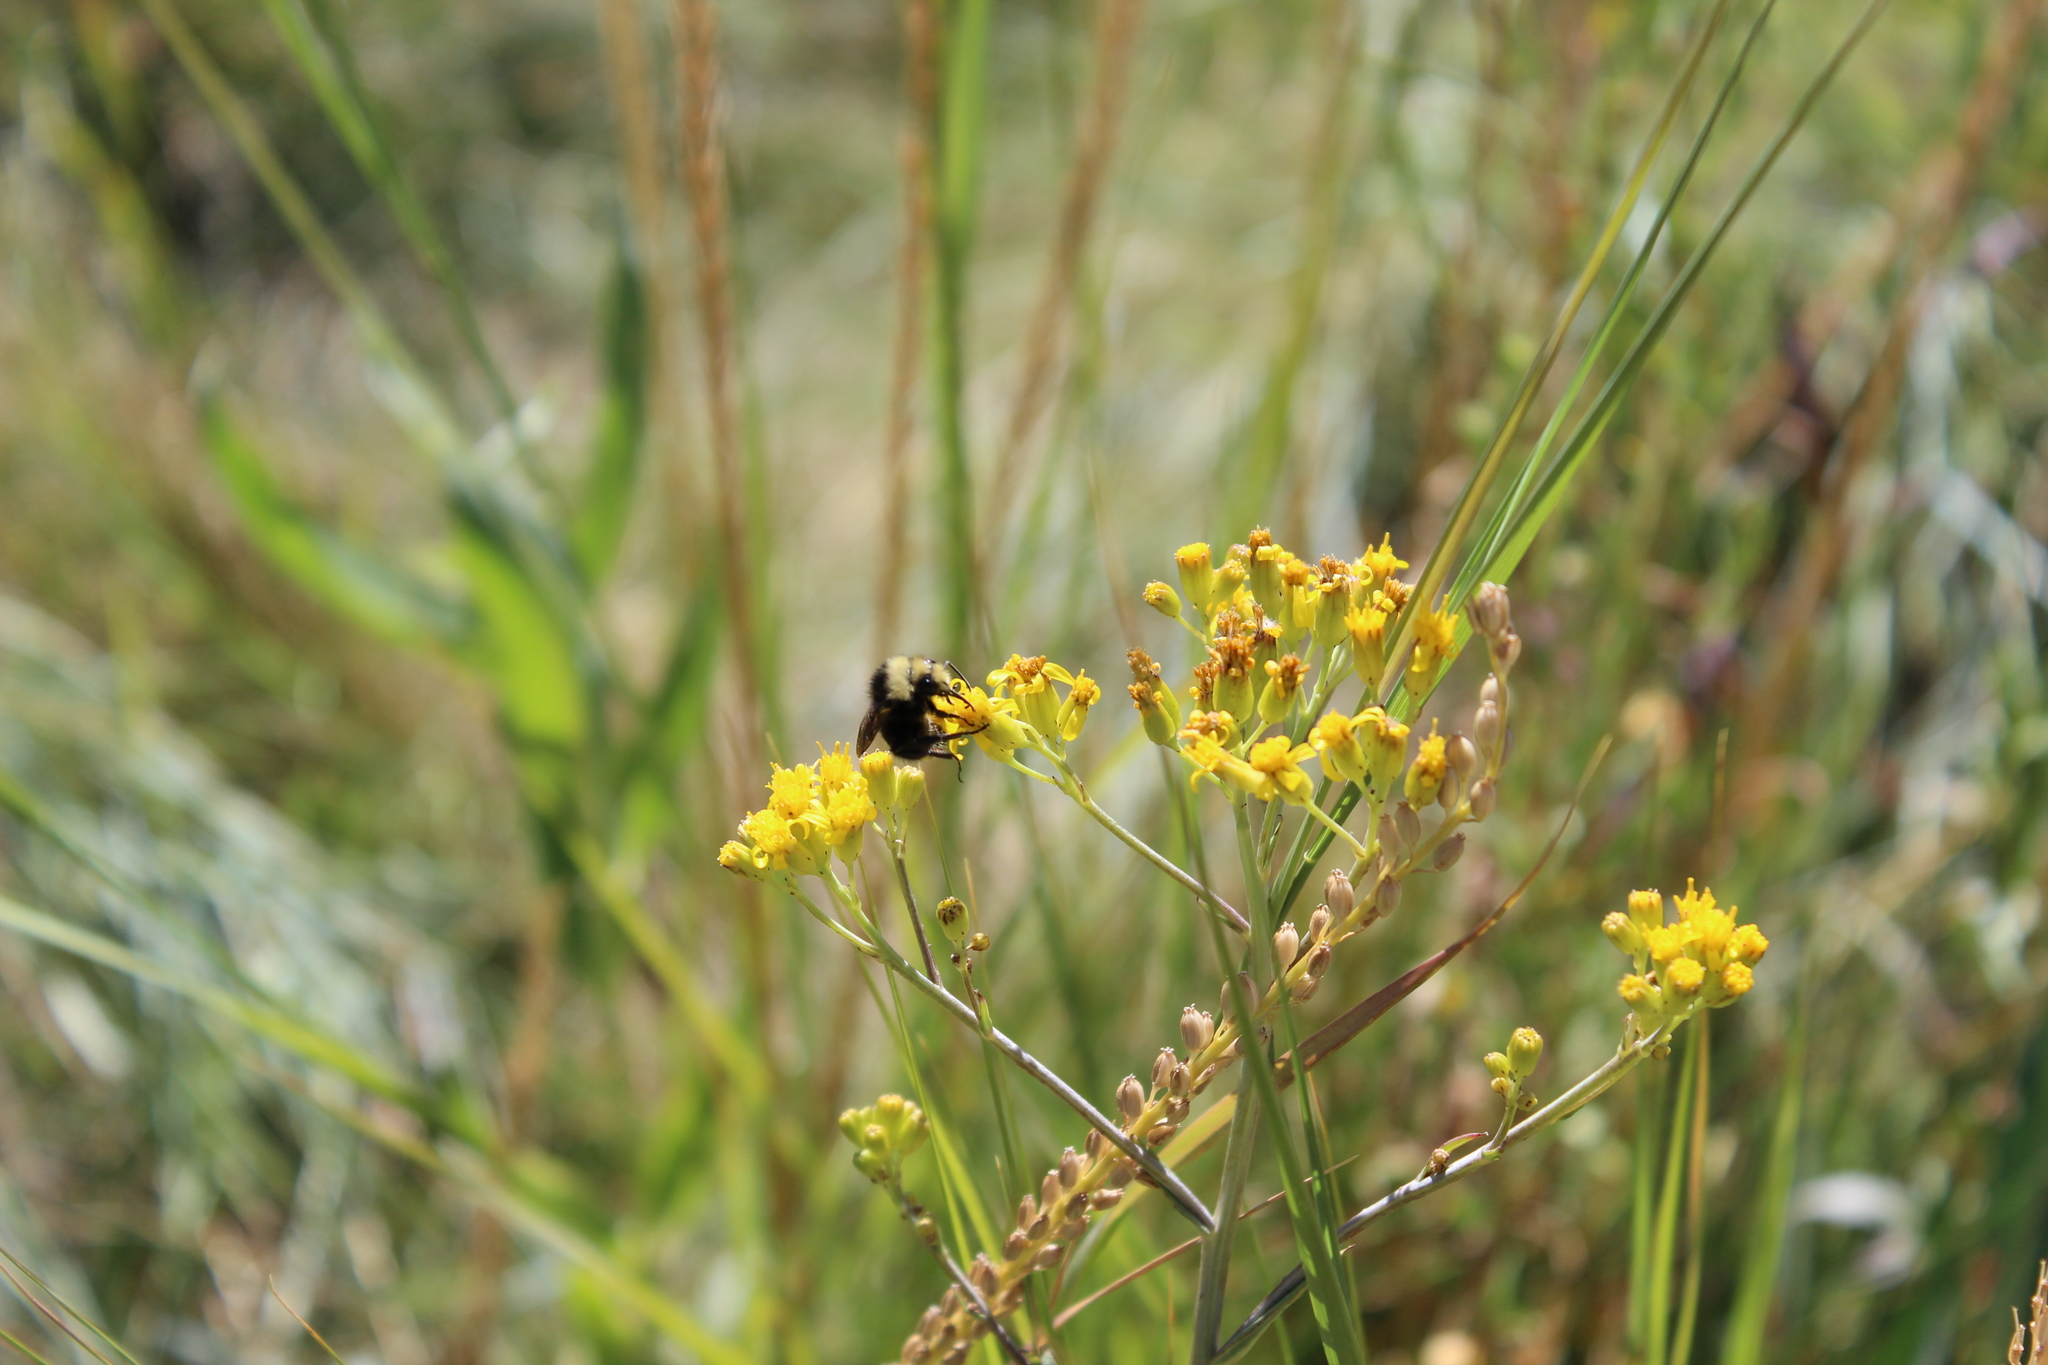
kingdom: Animalia
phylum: Arthropoda
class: Insecta
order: Hymenoptera
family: Apidae
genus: Bombus
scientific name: Bombus vosnesenskii
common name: Vosnesensky bumble bee
